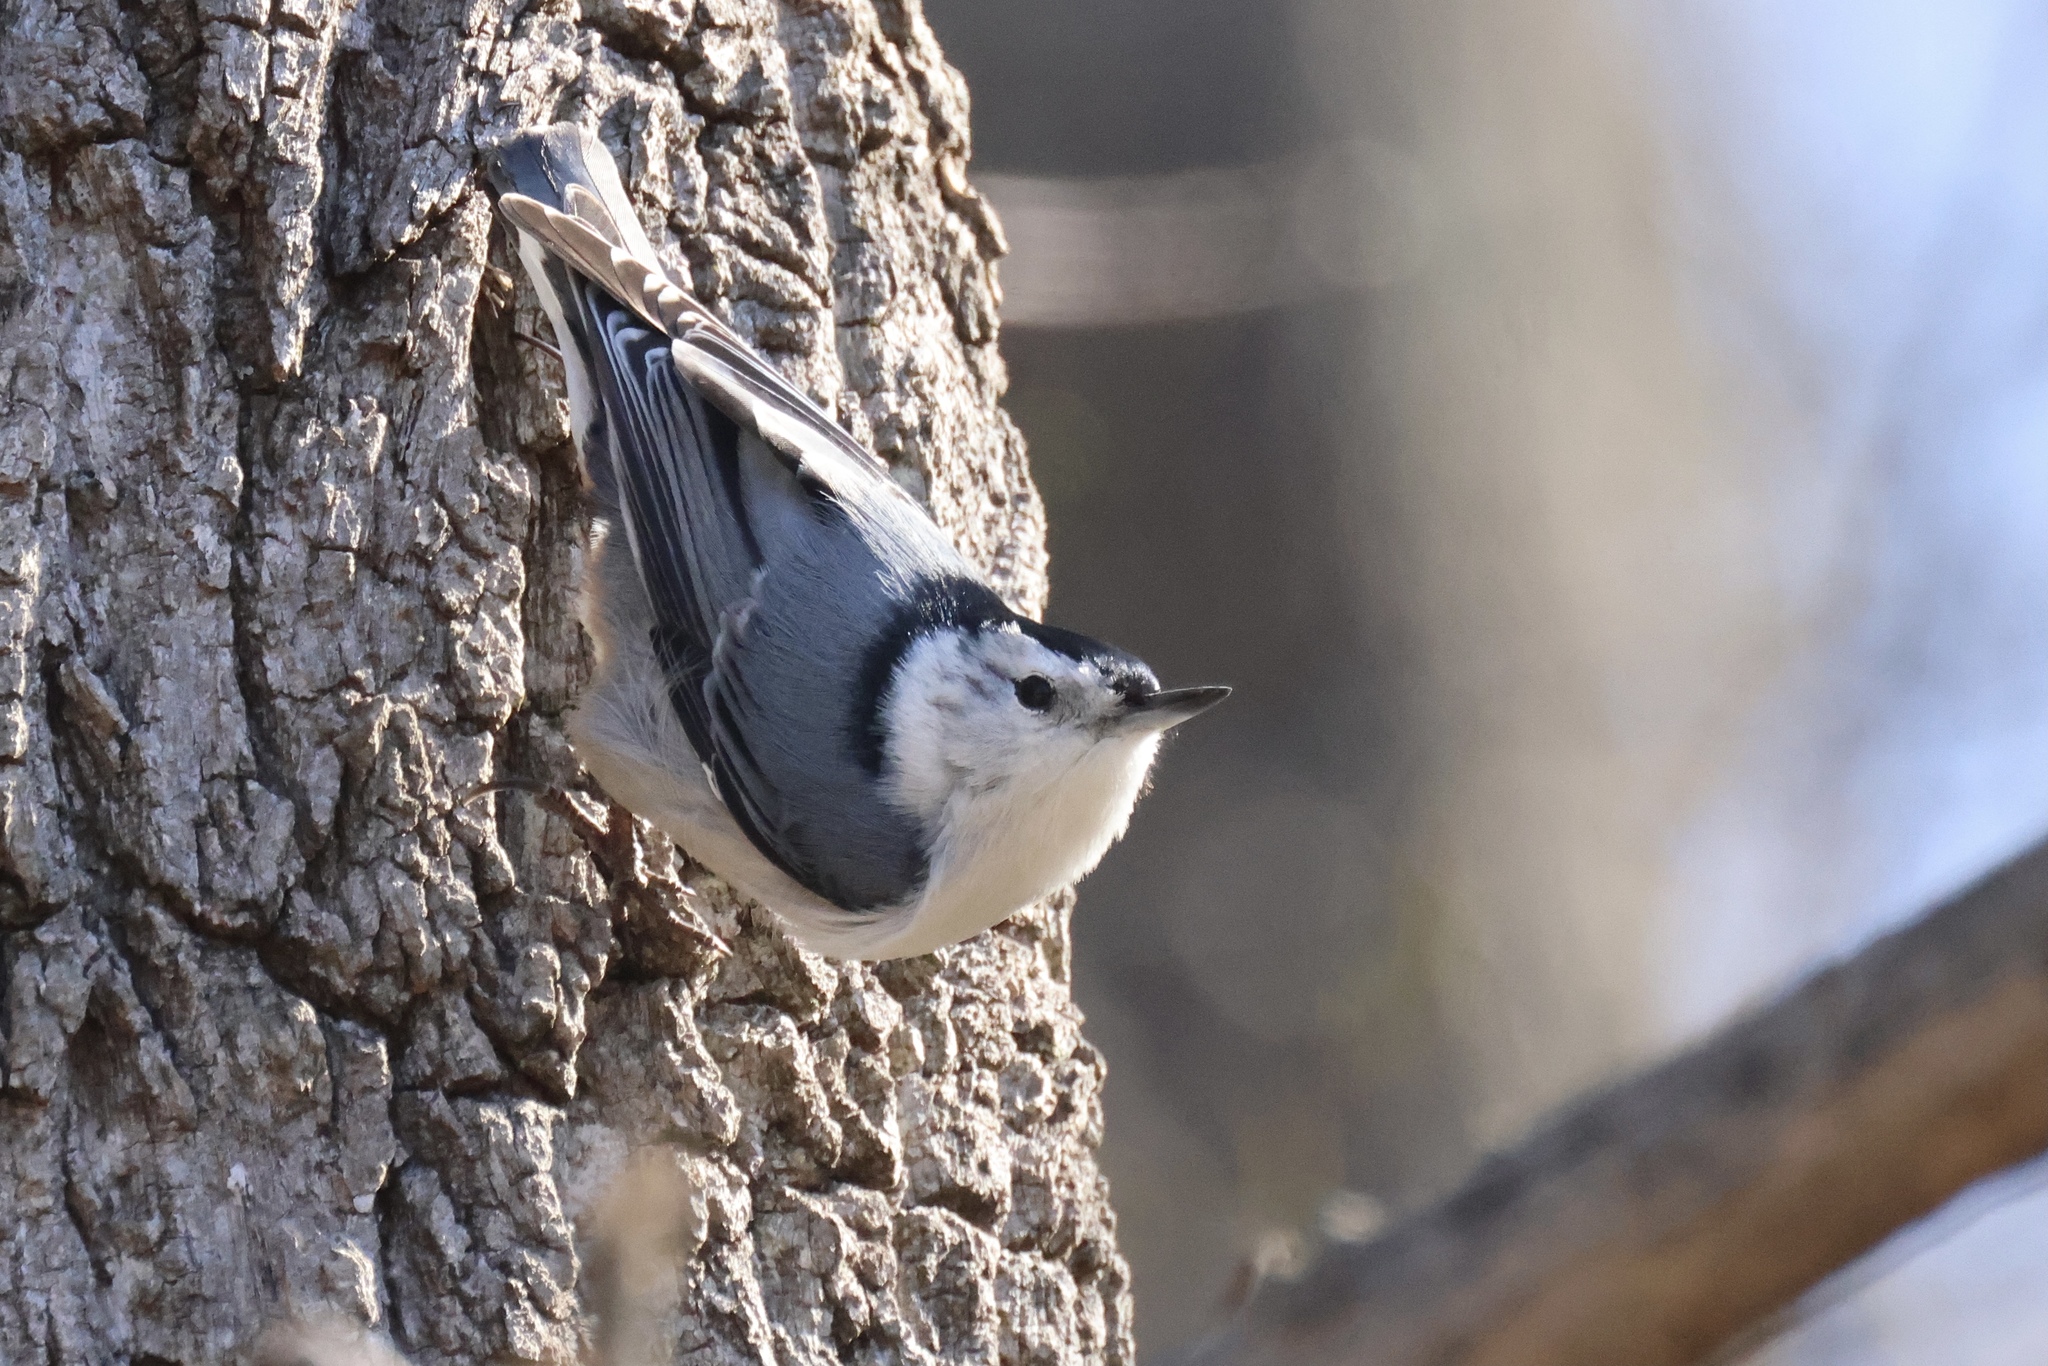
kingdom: Animalia
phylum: Chordata
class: Aves
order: Passeriformes
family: Sittidae
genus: Sitta
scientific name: Sitta carolinensis
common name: White-breasted nuthatch
